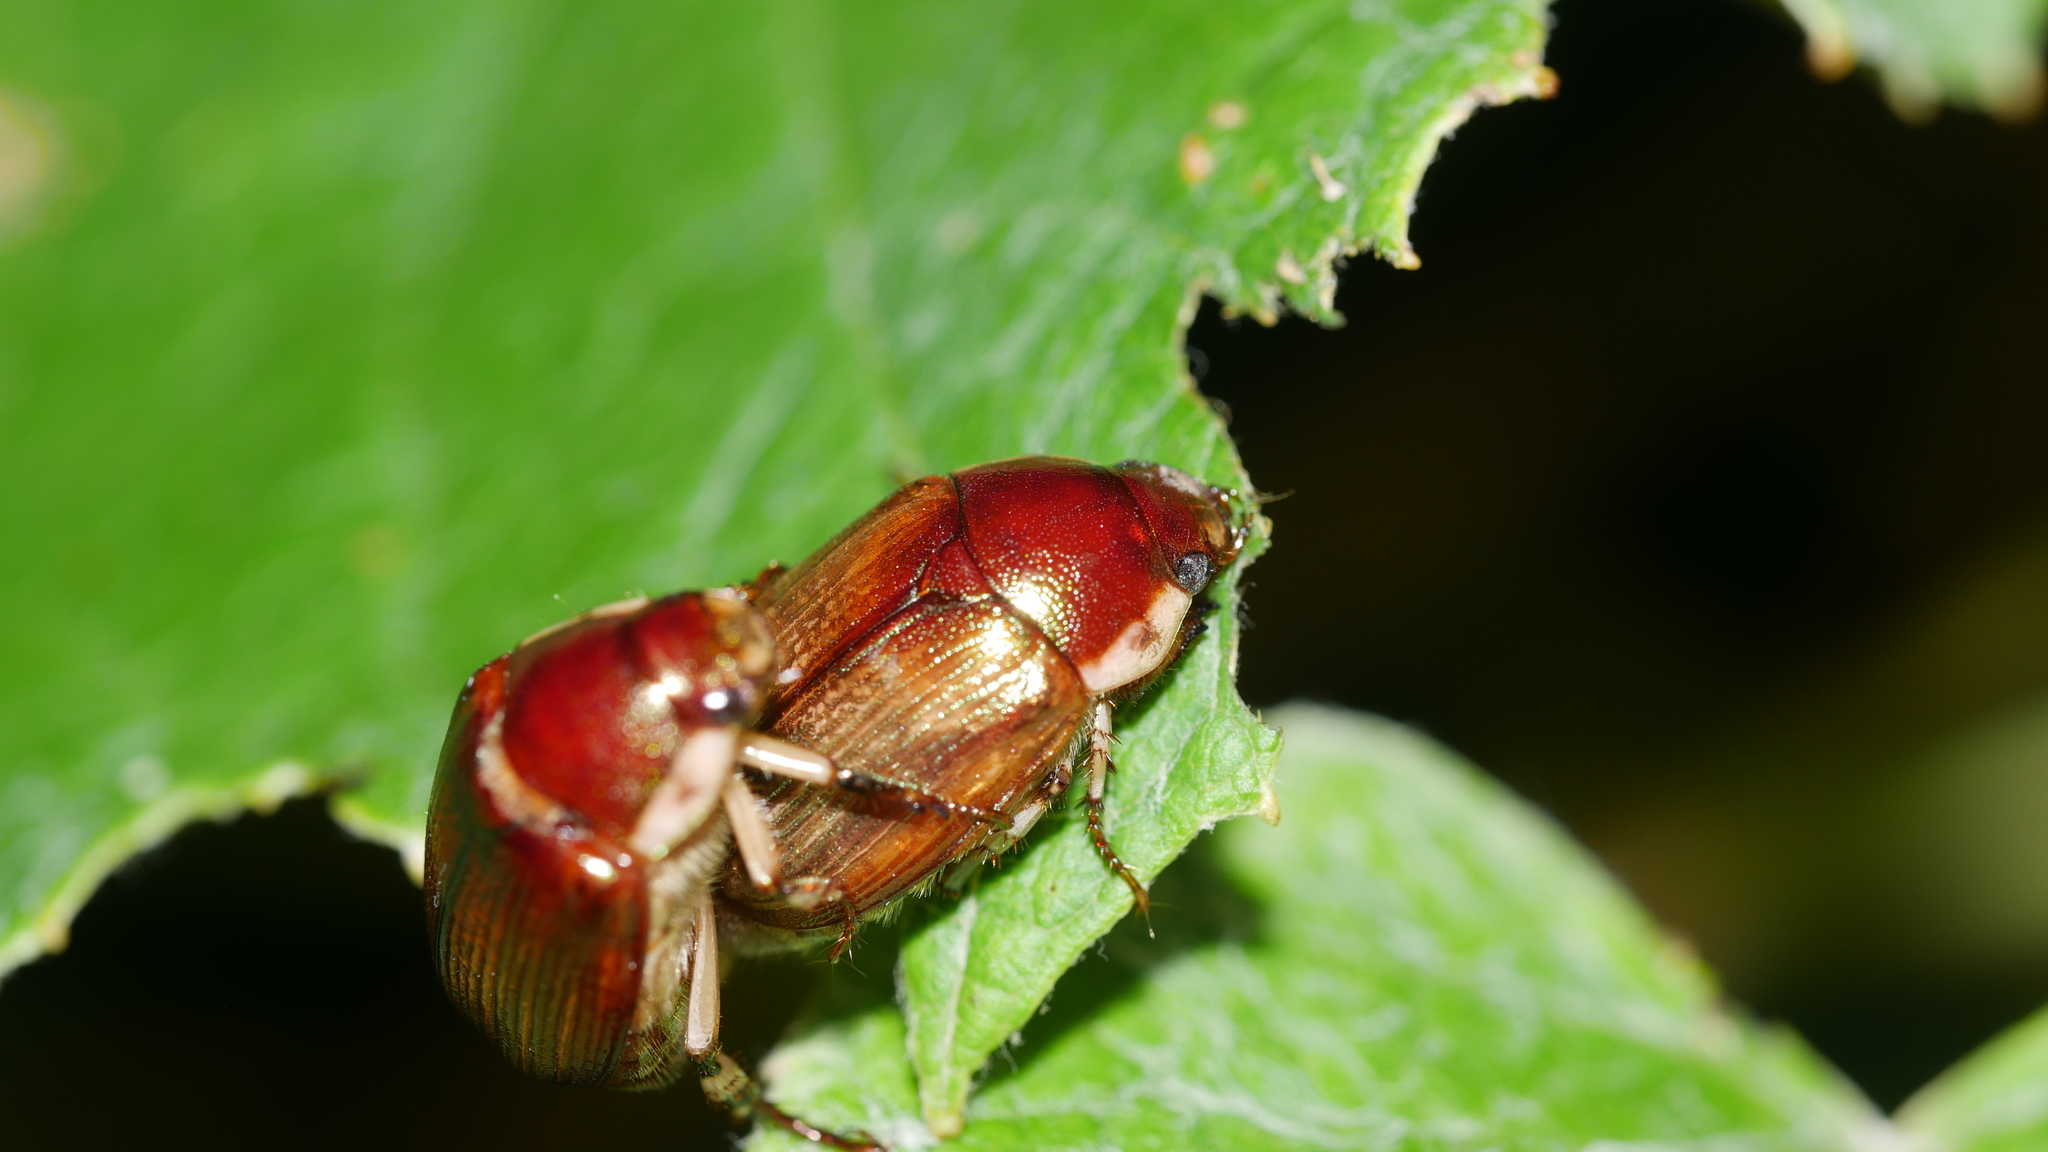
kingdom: Animalia
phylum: Arthropoda
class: Insecta
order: Coleoptera
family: Scarabaeidae
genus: Callistethus
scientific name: Callistethus marginatus
